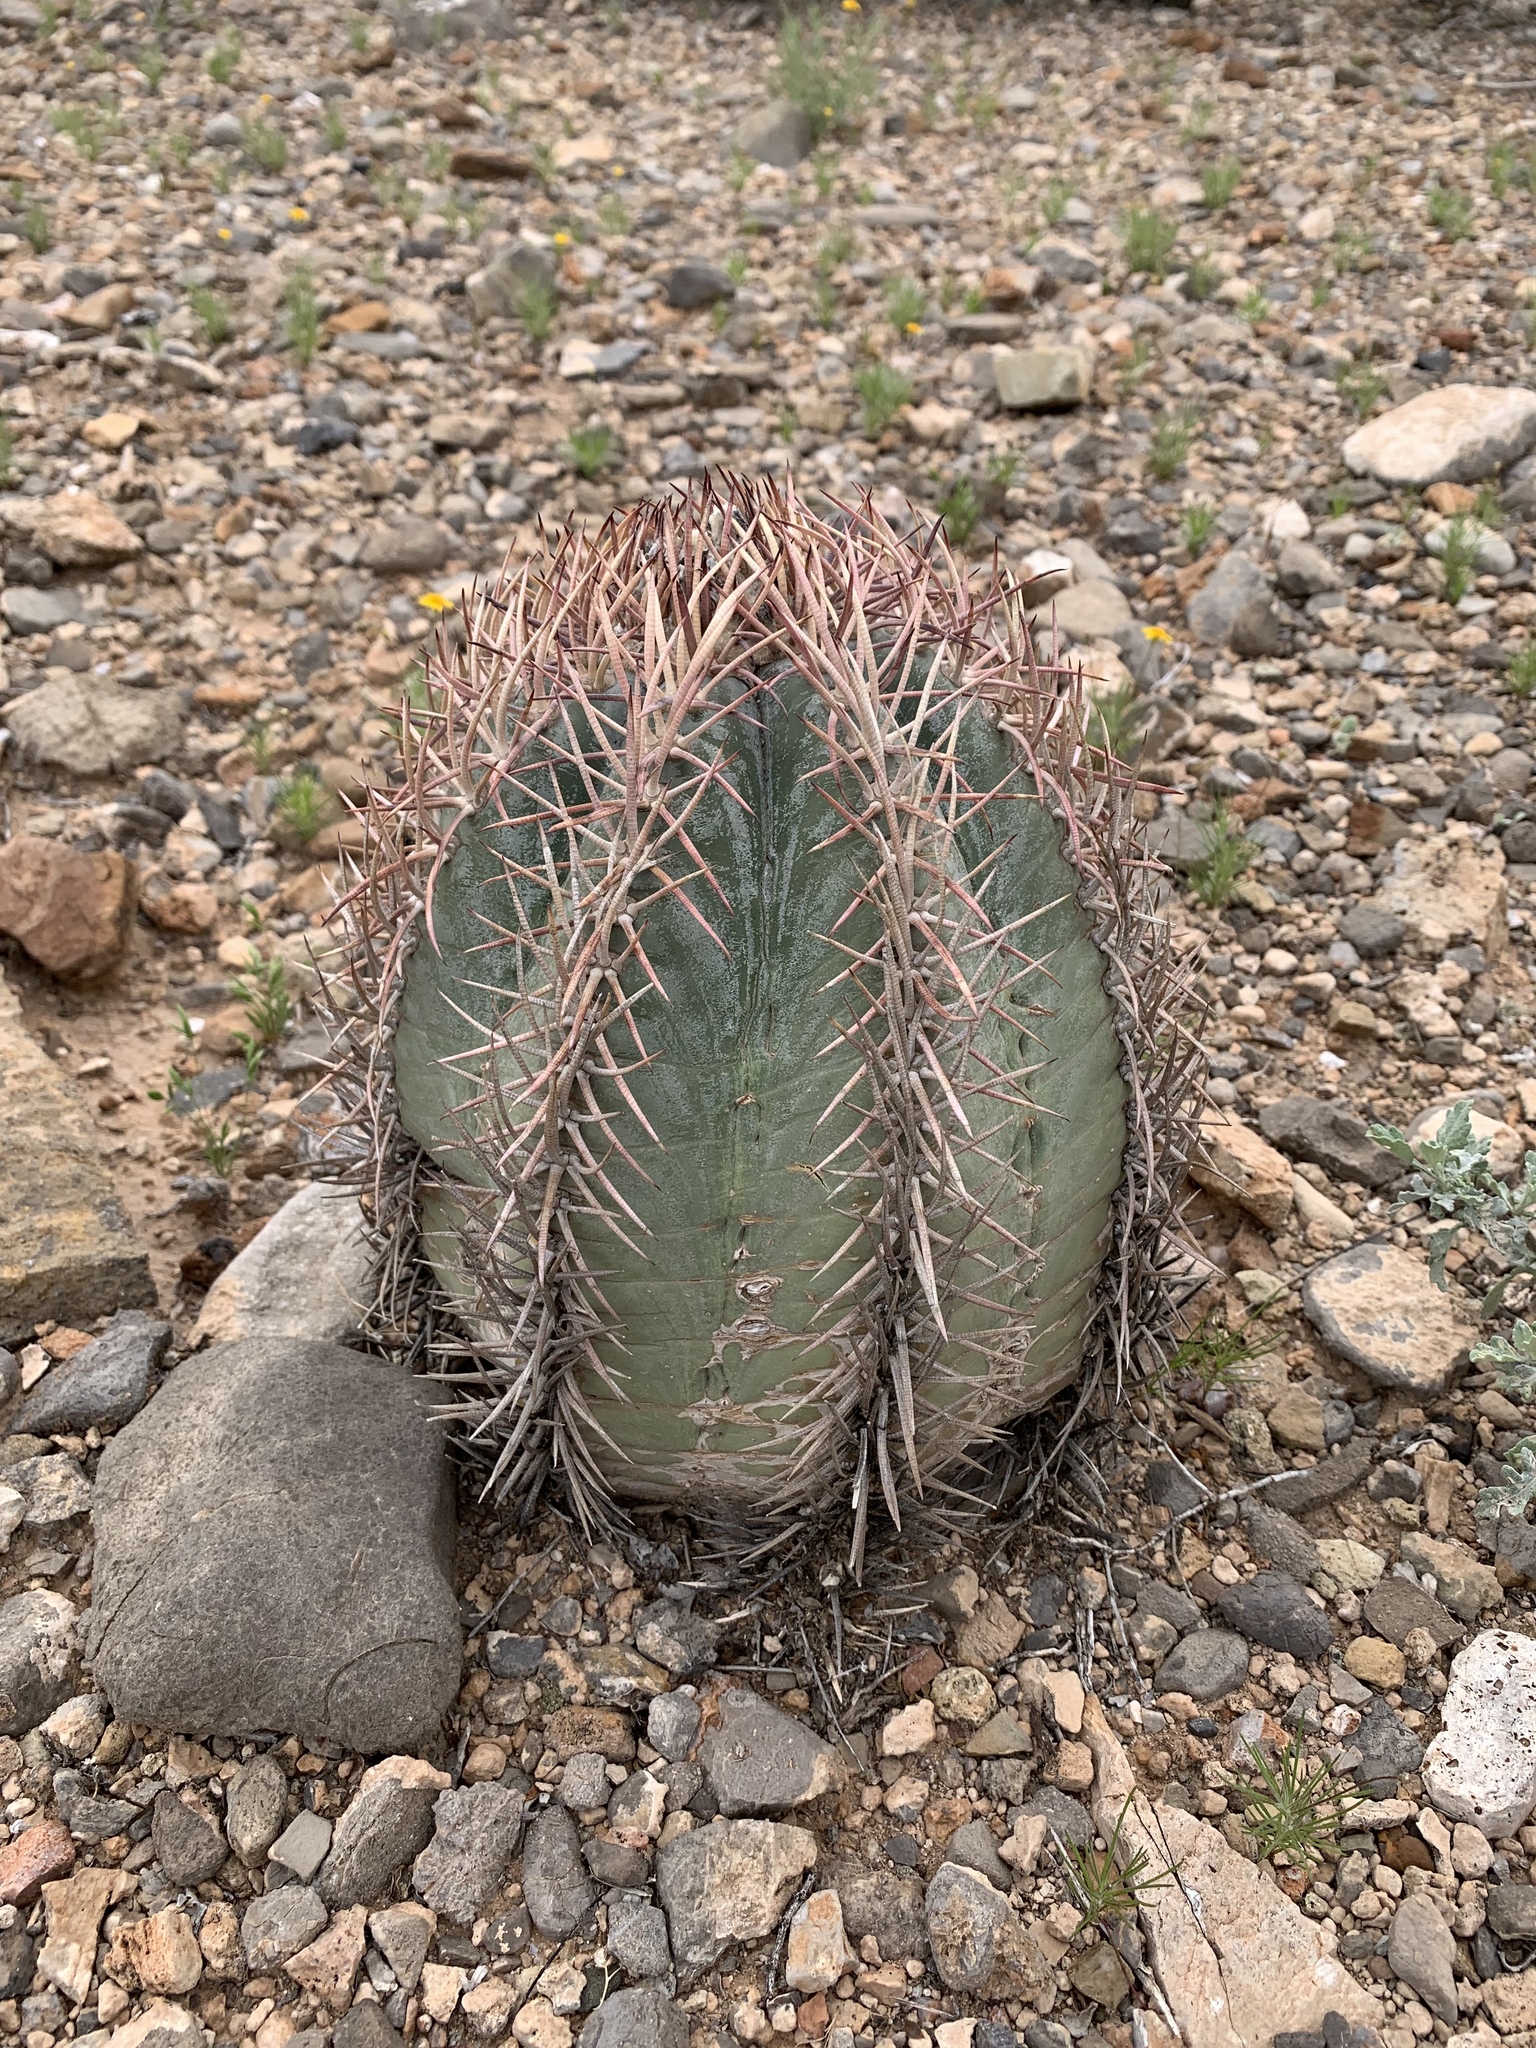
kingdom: Plantae
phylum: Tracheophyta
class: Magnoliopsida
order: Caryophyllales
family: Cactaceae
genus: Echinocactus
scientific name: Echinocactus horizonthalonius
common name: Devilshead
